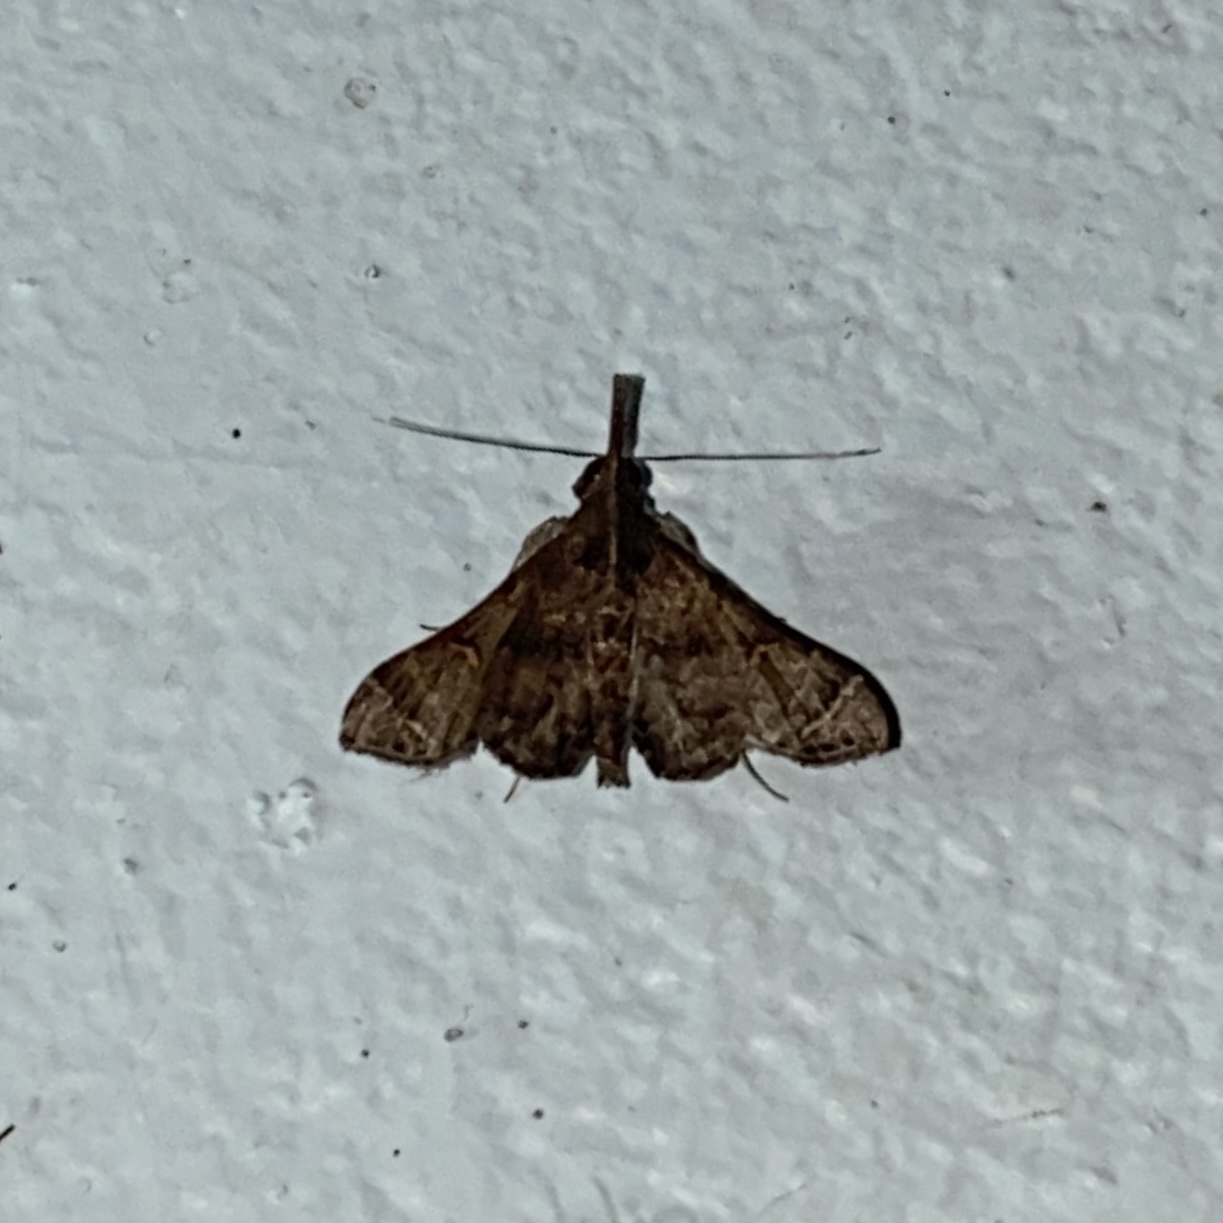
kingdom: Animalia
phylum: Arthropoda
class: Insecta
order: Lepidoptera
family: Erebidae
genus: Mastigophorus
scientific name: Mastigophorus augustus
